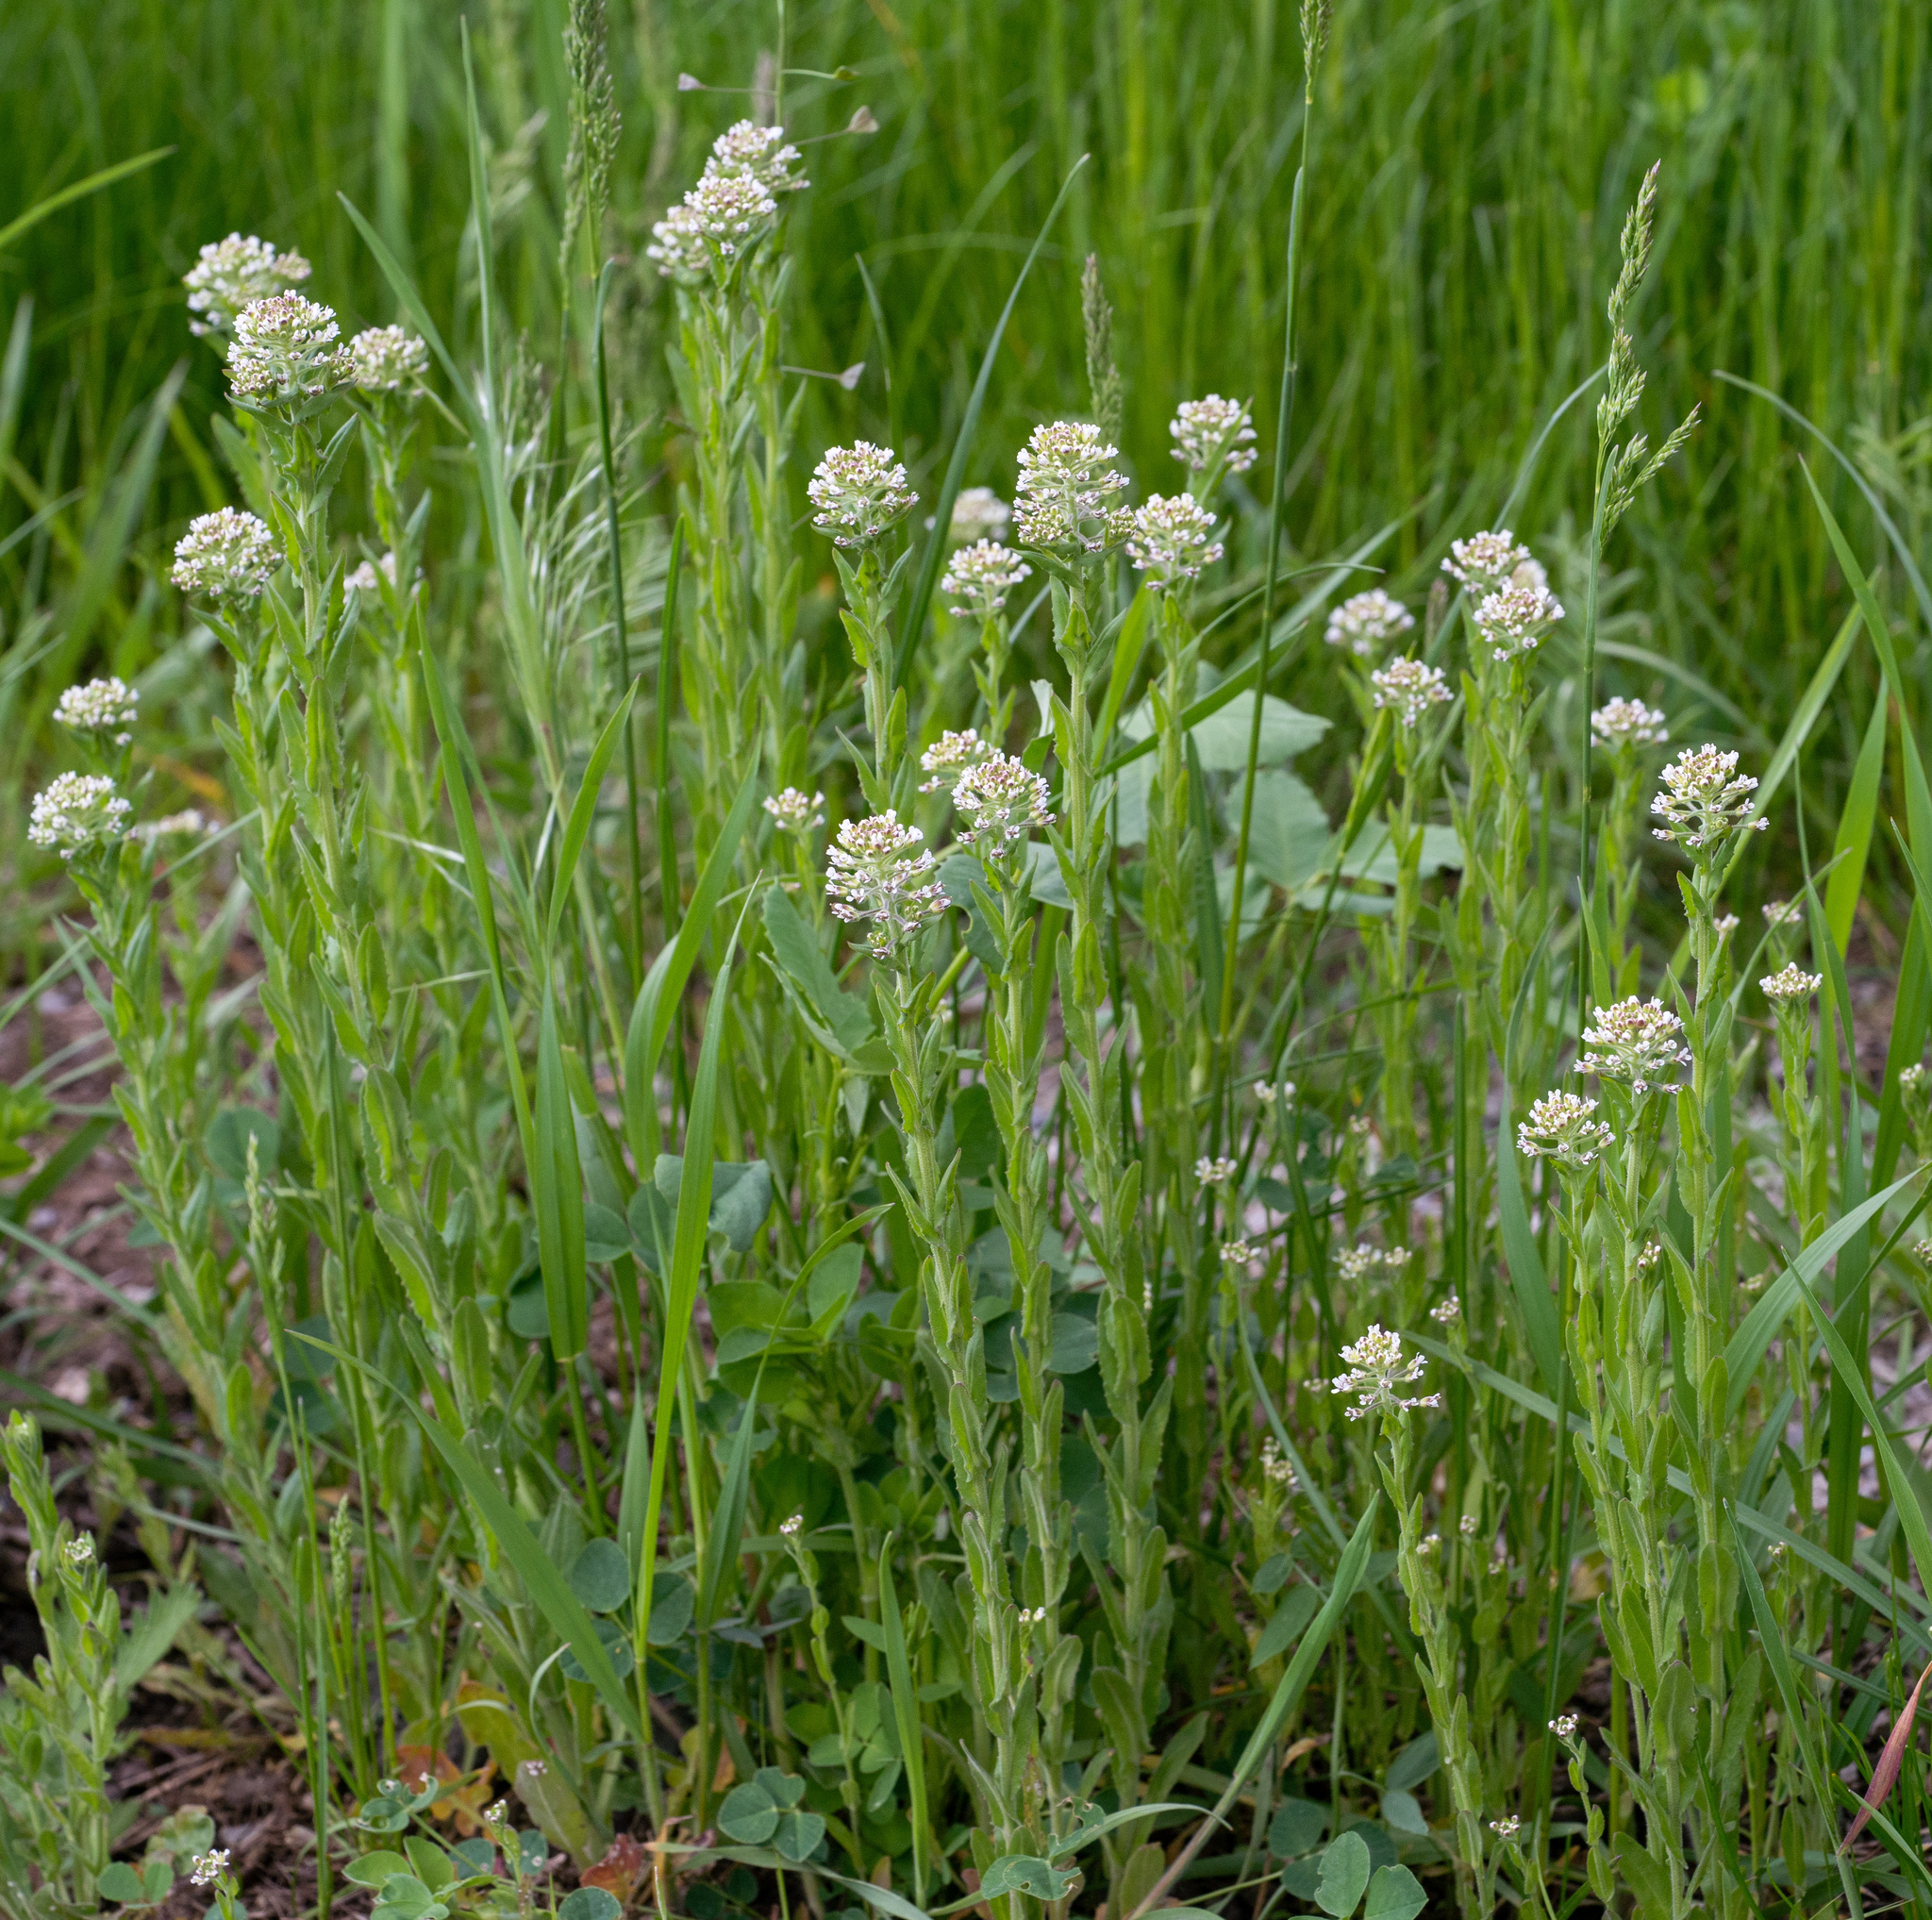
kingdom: Plantae
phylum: Tracheophyta
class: Magnoliopsida
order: Brassicales
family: Brassicaceae
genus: Lepidium
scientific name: Lepidium campestre
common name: Field pepperwort
